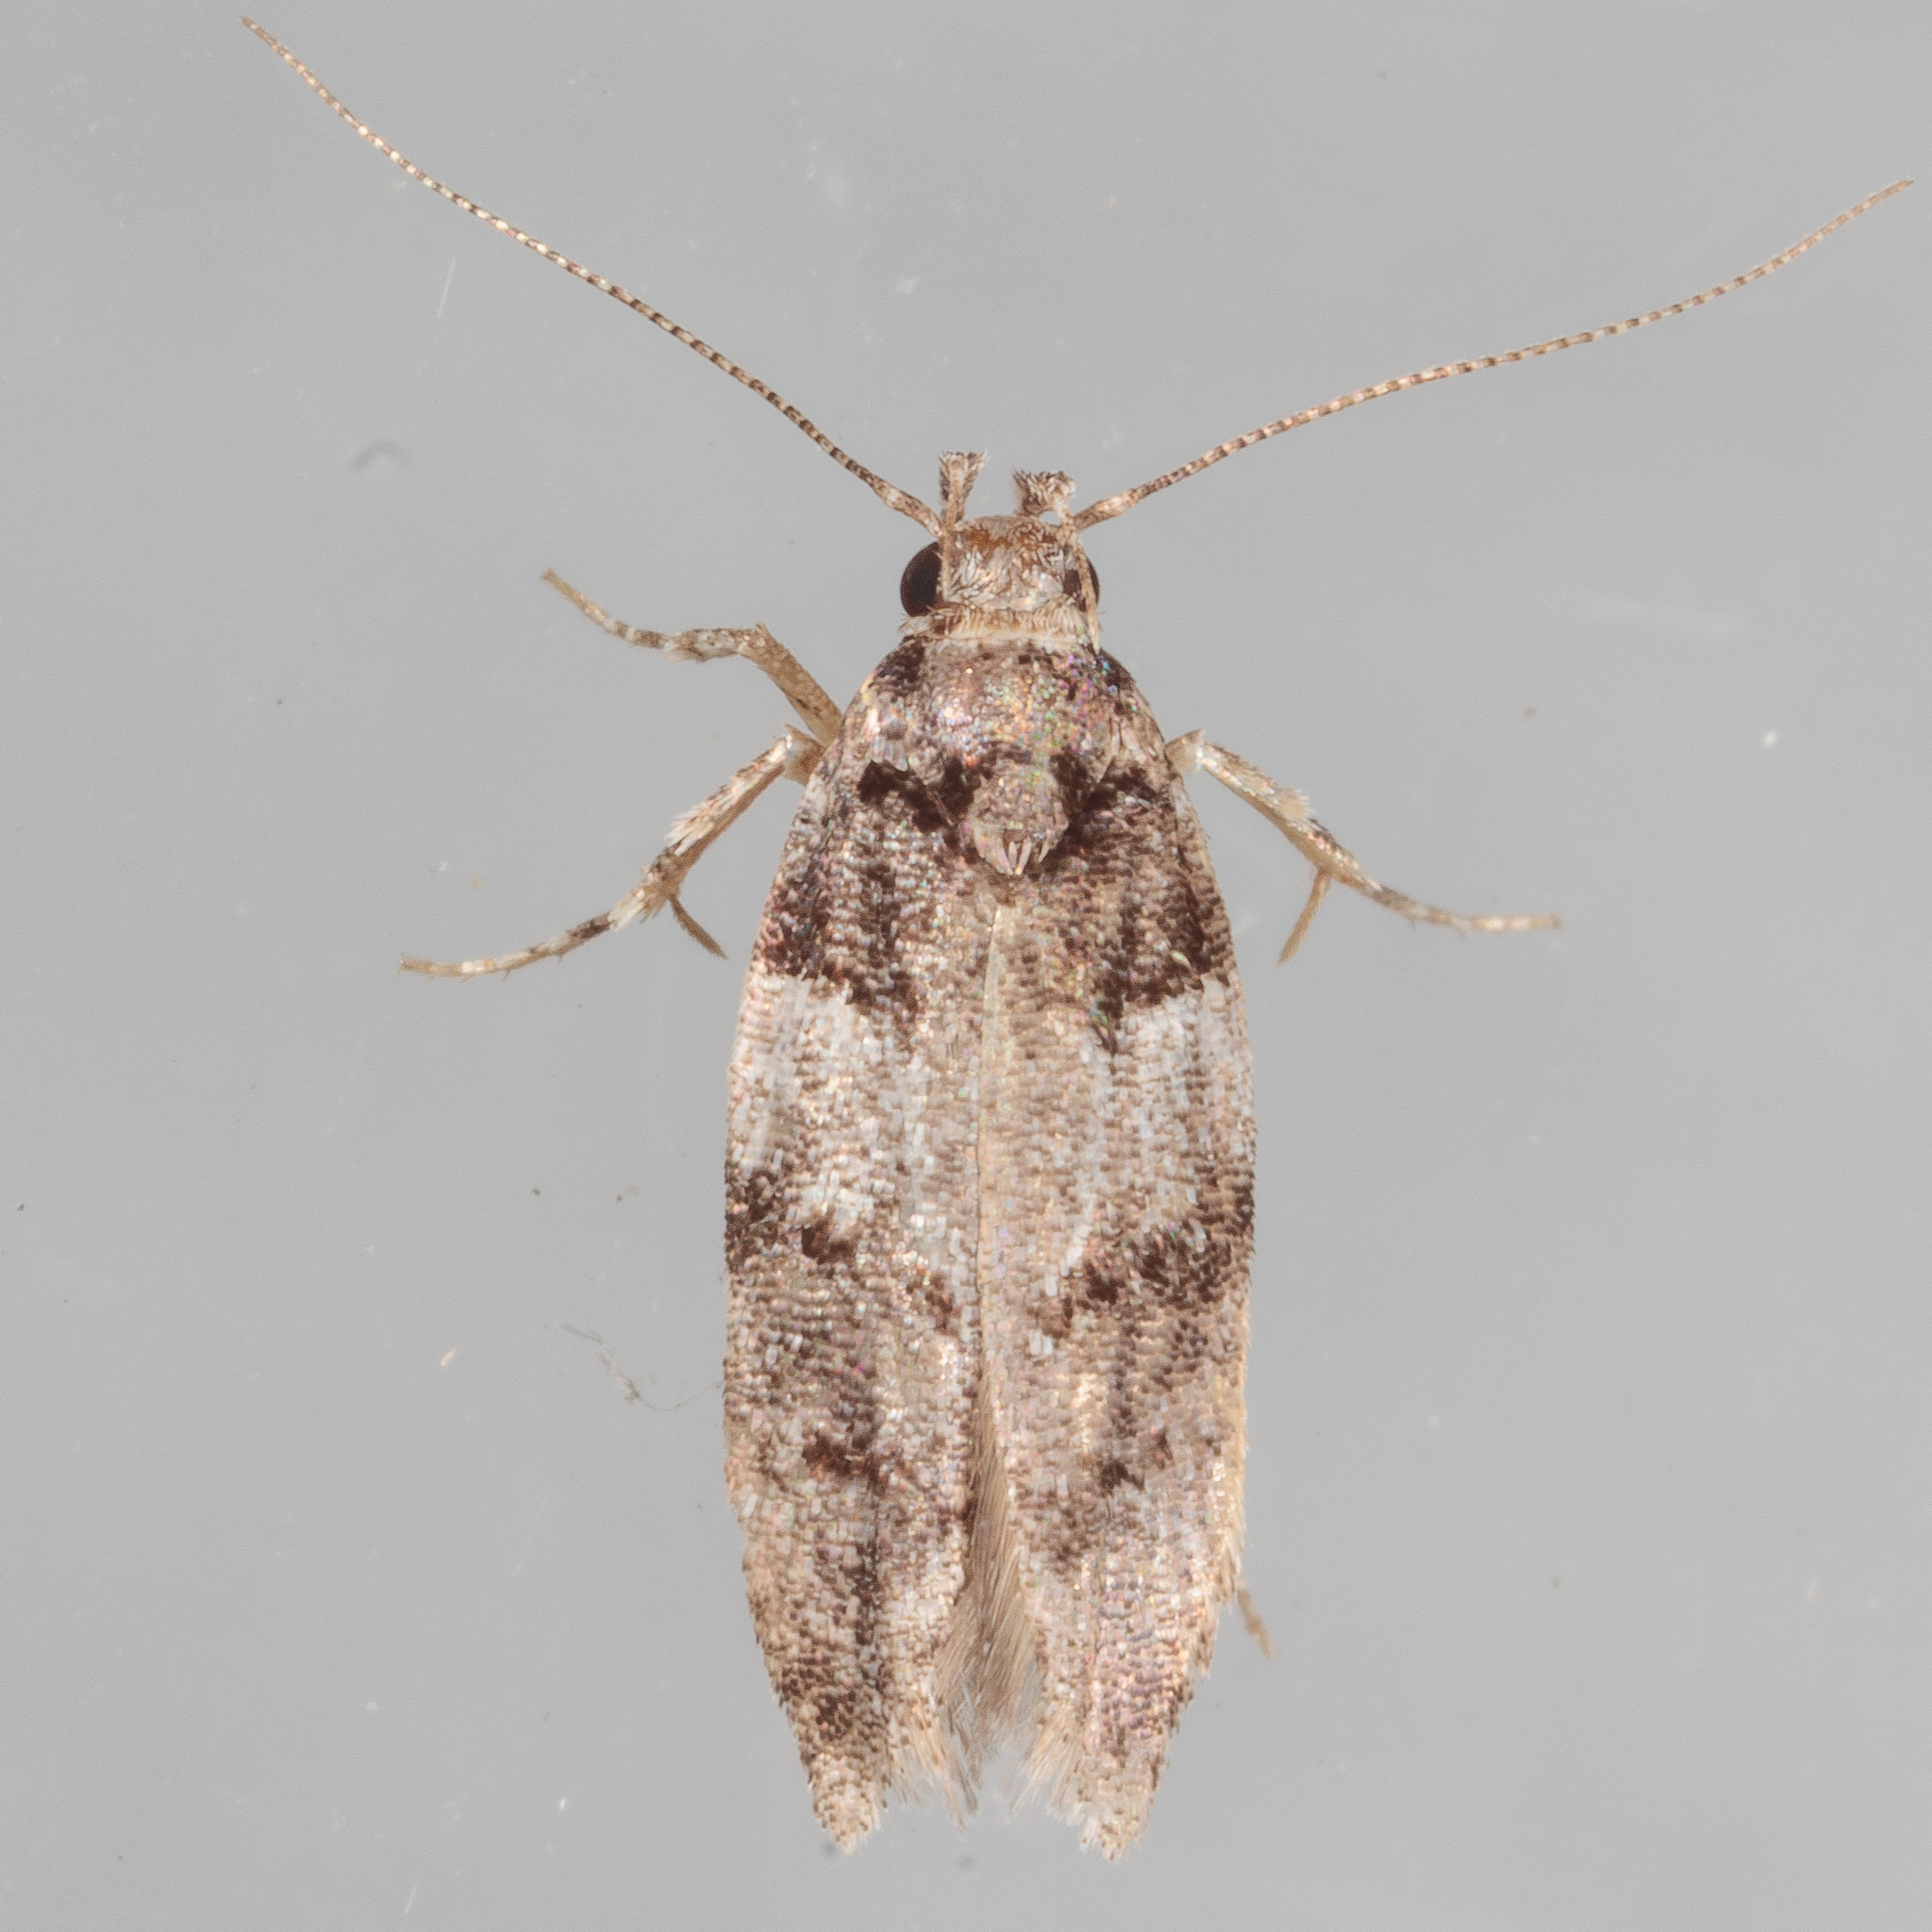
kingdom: Animalia
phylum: Arthropoda
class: Insecta
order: Lepidoptera
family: Gelechiidae
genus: Pubitelphusa
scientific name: Pubitelphusa latifasciella
